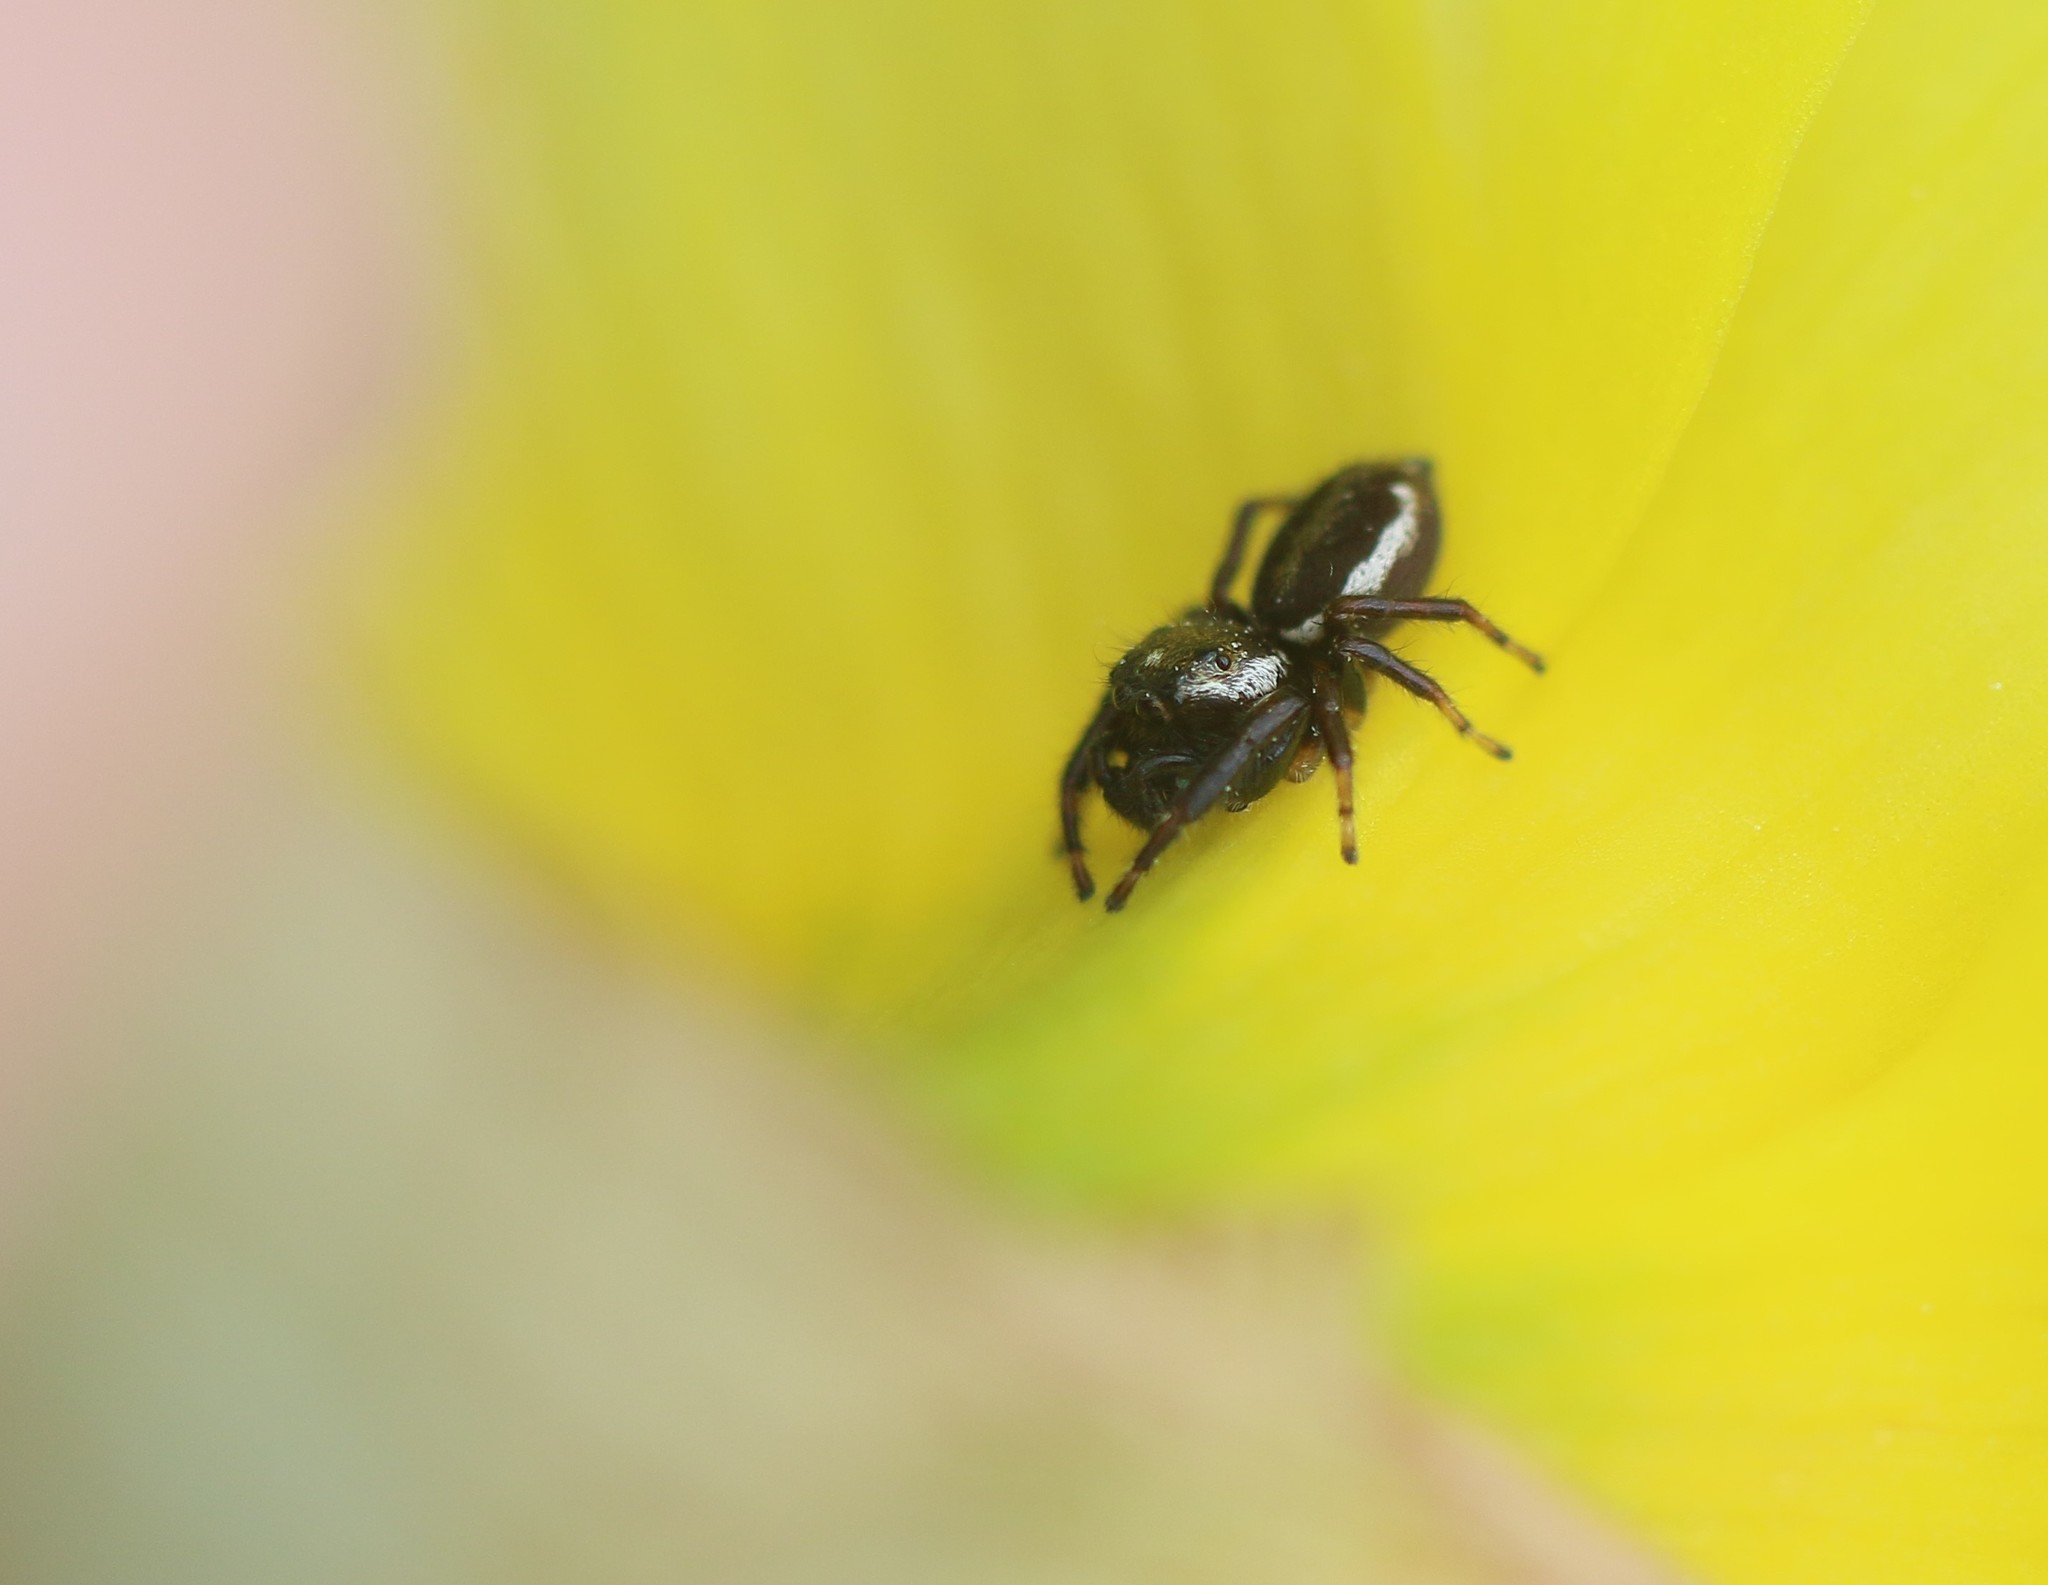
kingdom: Animalia
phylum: Arthropoda
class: Arachnida
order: Araneae
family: Salticidae
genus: Eris
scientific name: Eris militaris
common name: Bronze jumper
